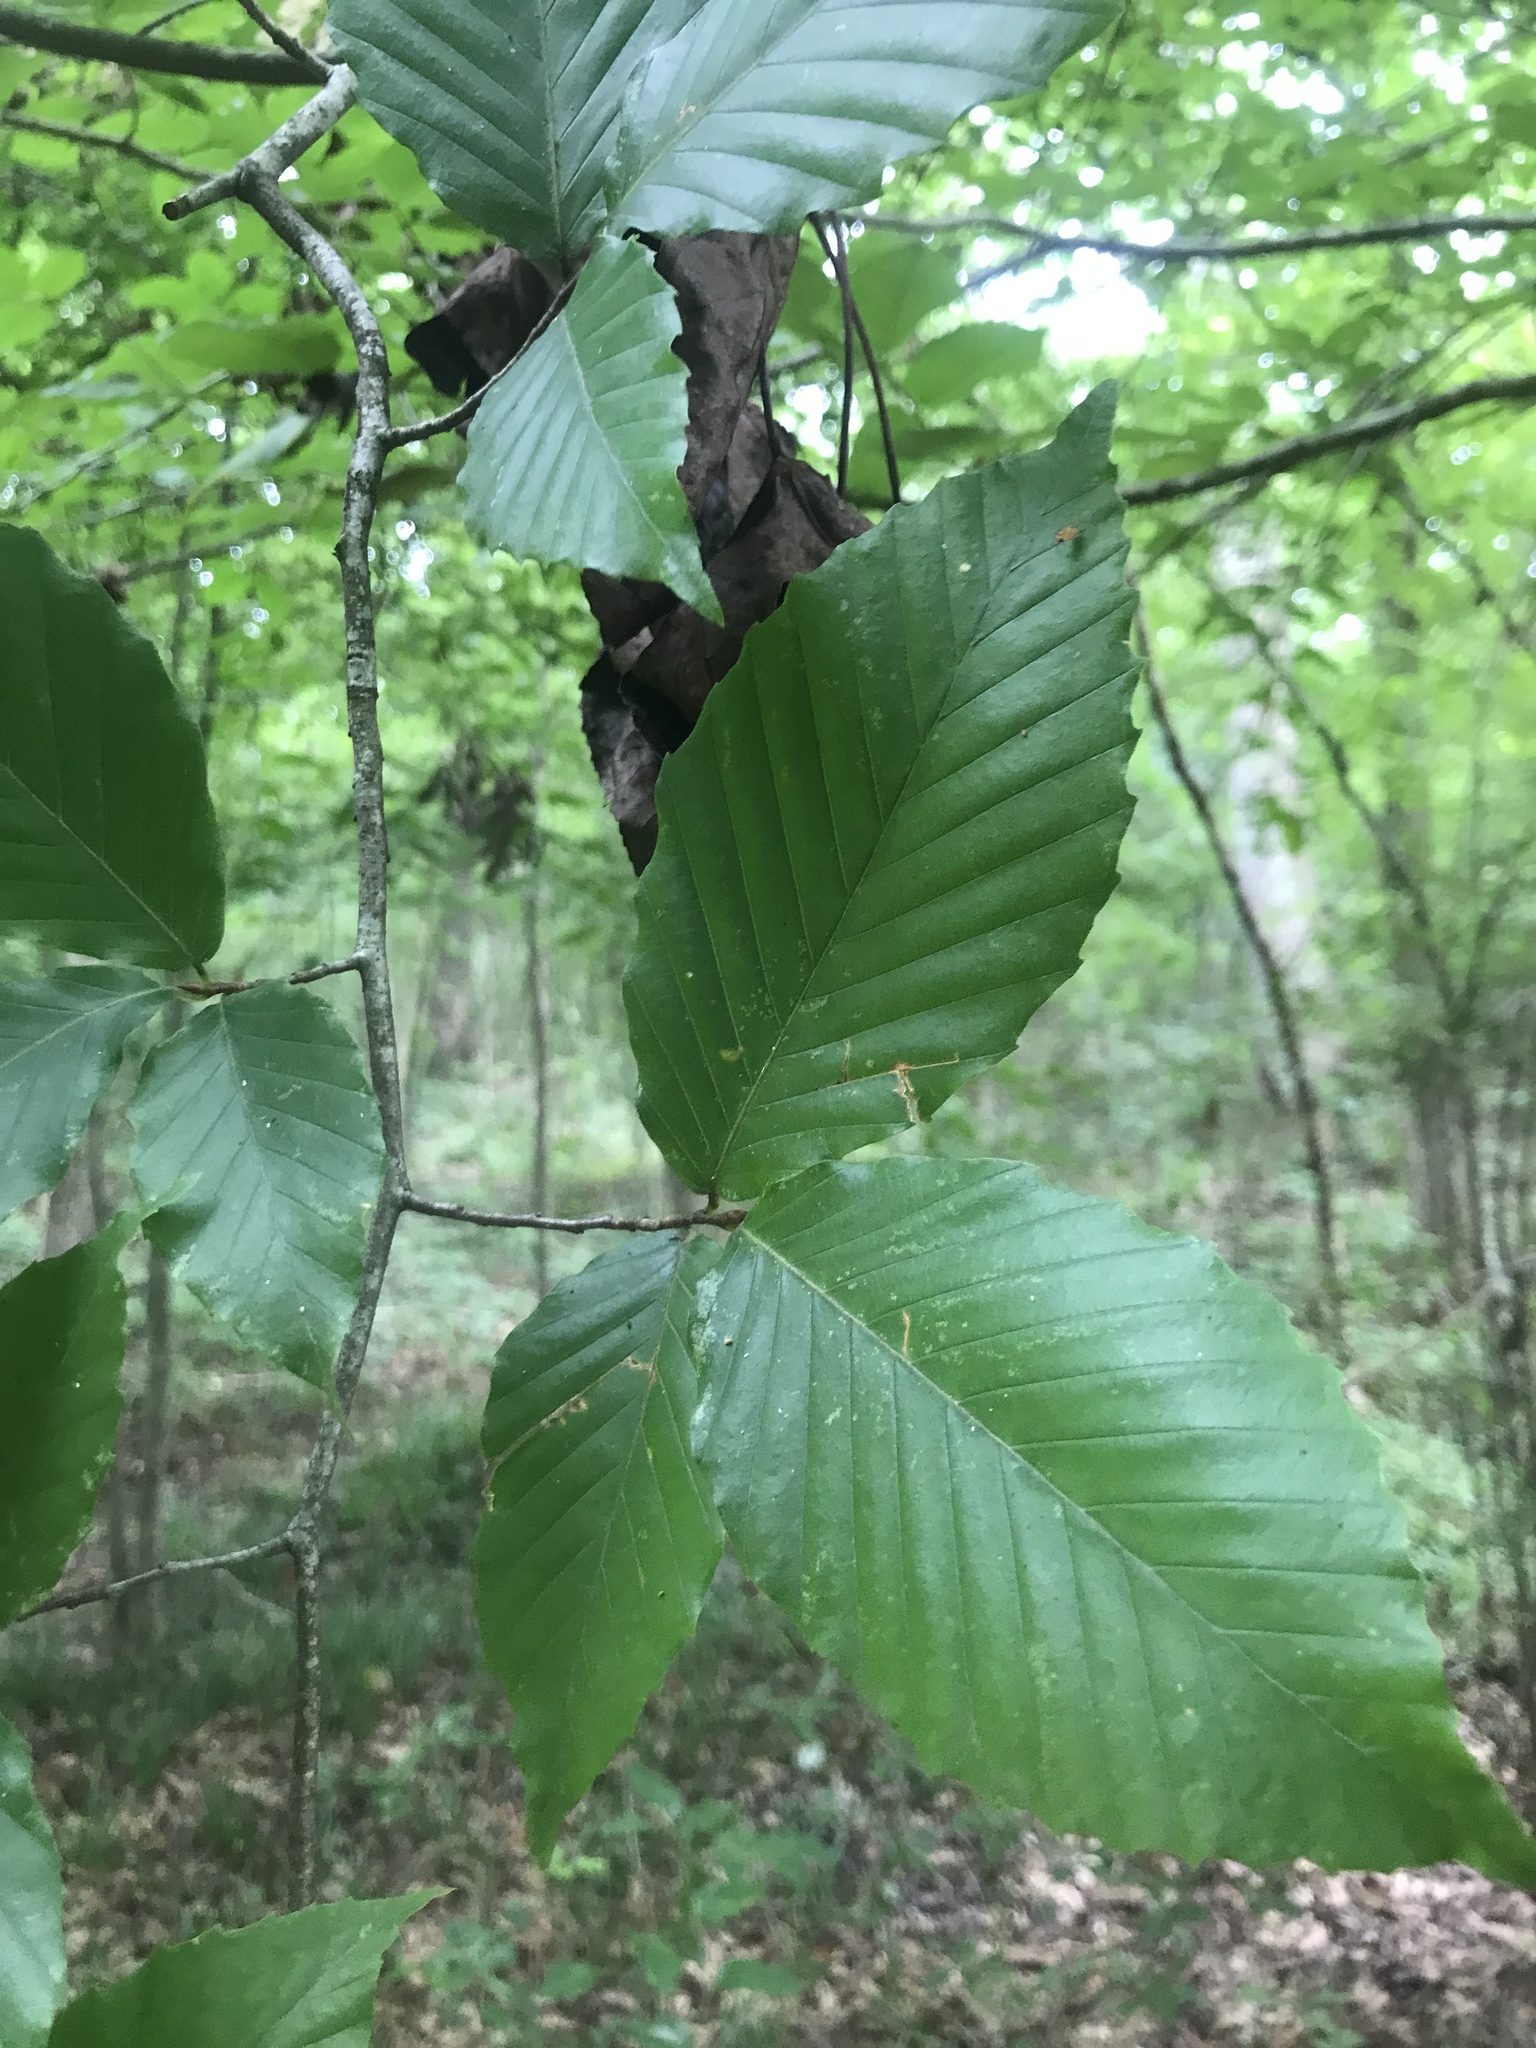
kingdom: Plantae
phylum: Tracheophyta
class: Magnoliopsida
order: Fagales
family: Fagaceae
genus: Fagus
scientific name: Fagus grandifolia
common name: American beech
